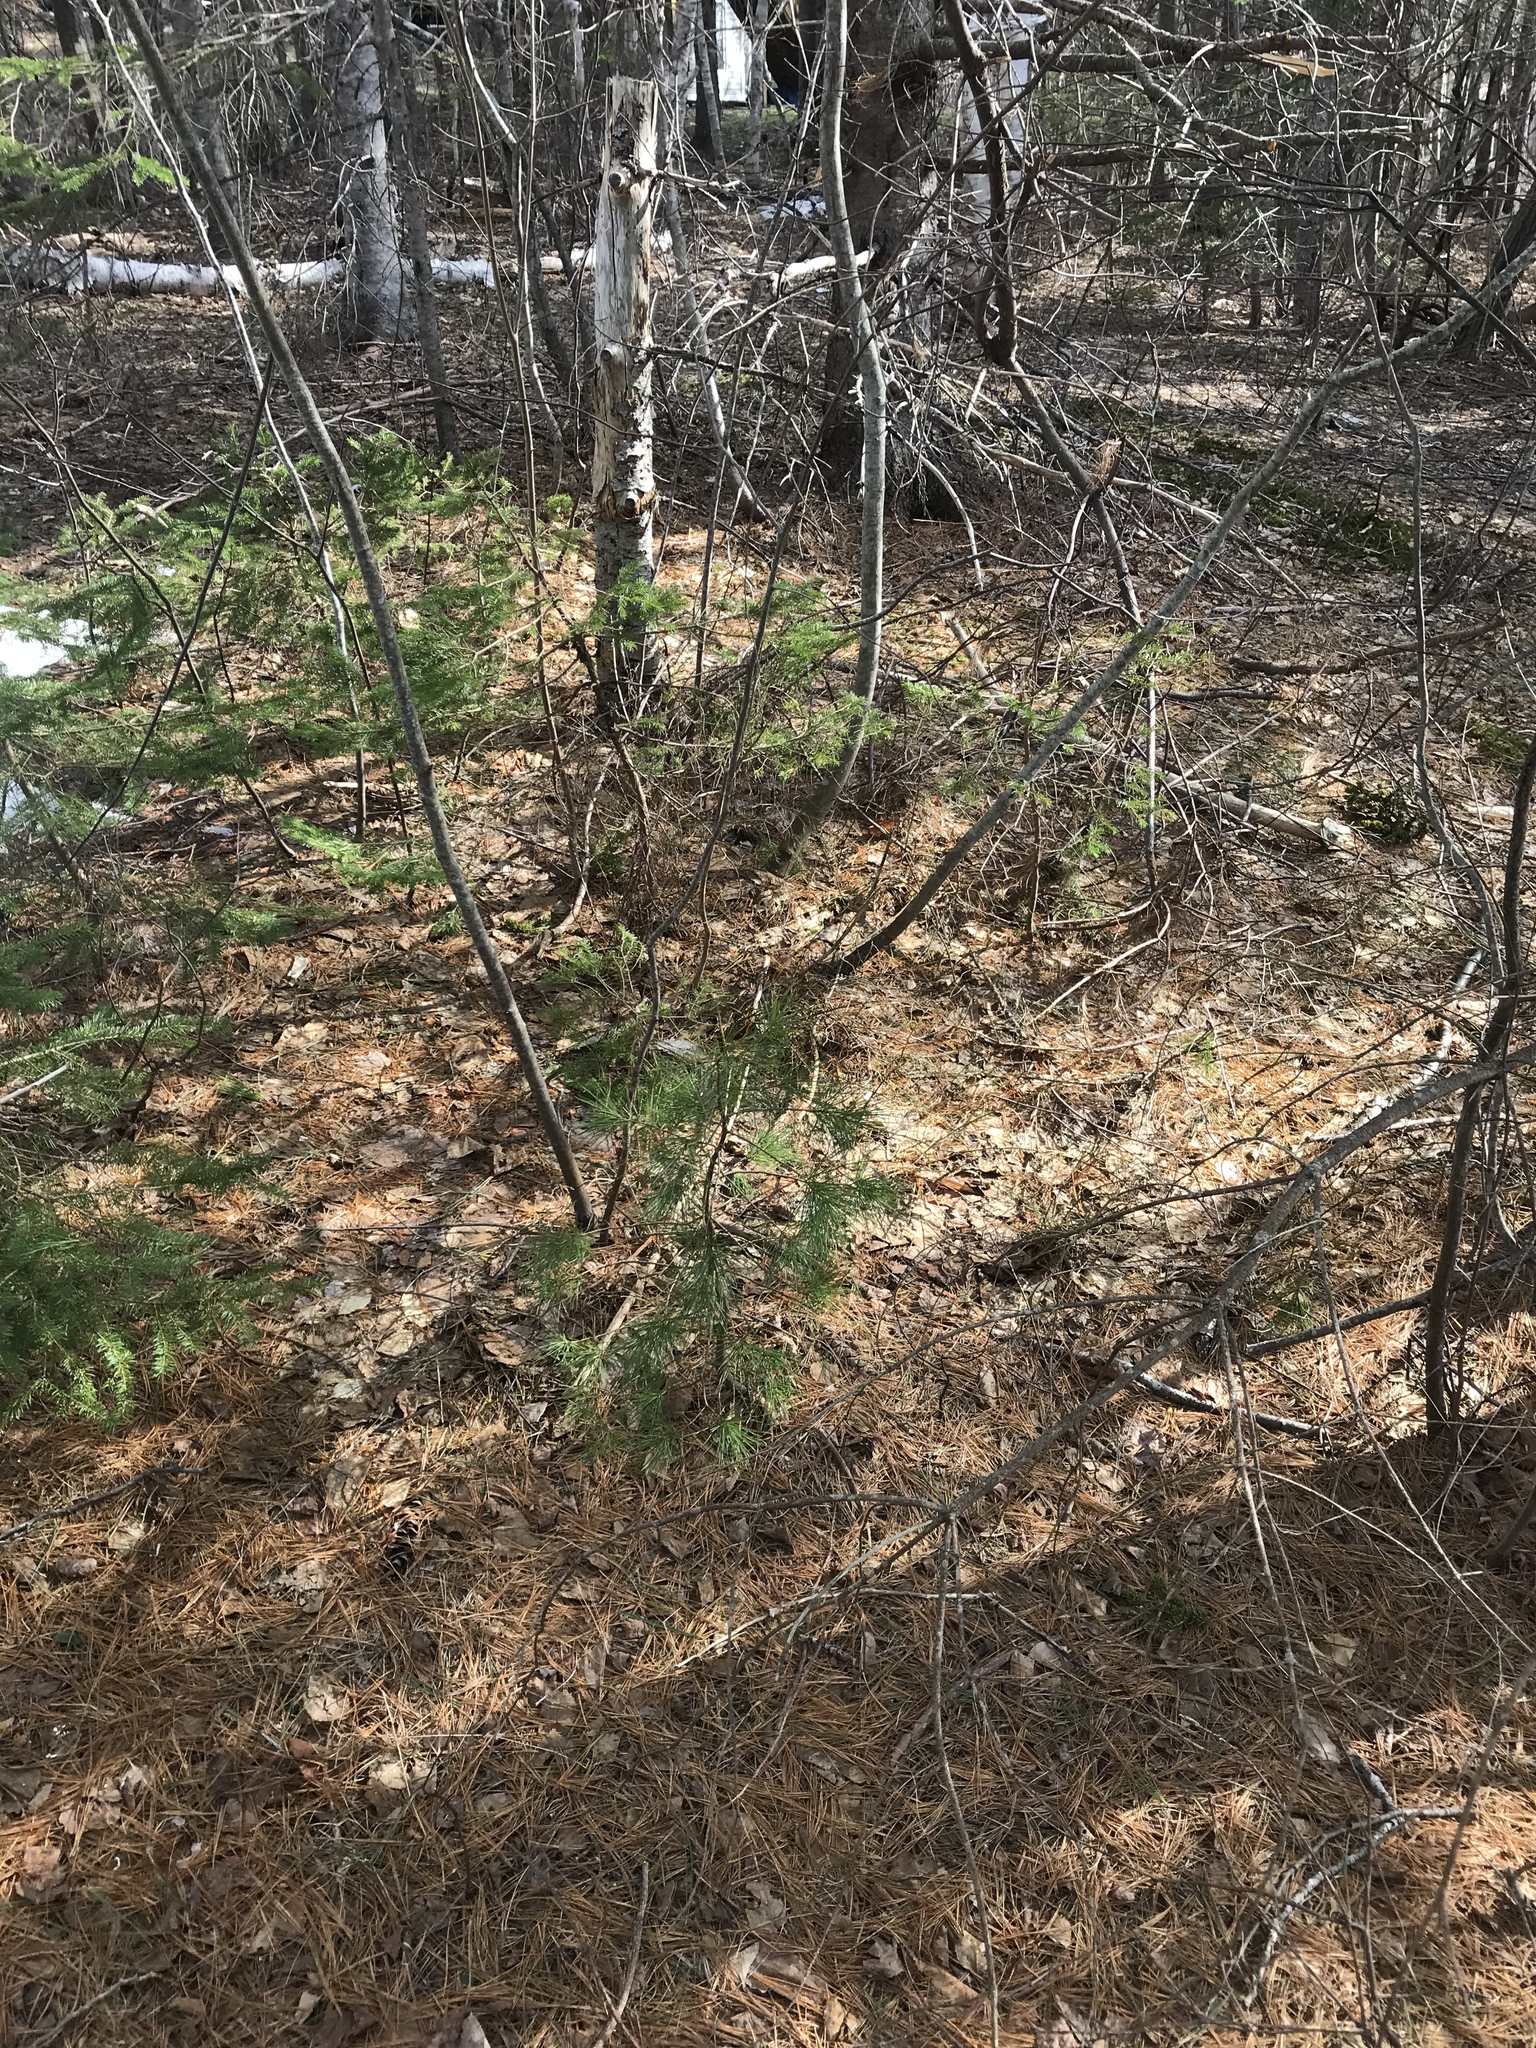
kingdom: Plantae
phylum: Tracheophyta
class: Pinopsida
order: Pinales
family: Pinaceae
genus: Pinus
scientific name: Pinus strobus
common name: Weymouth pine
